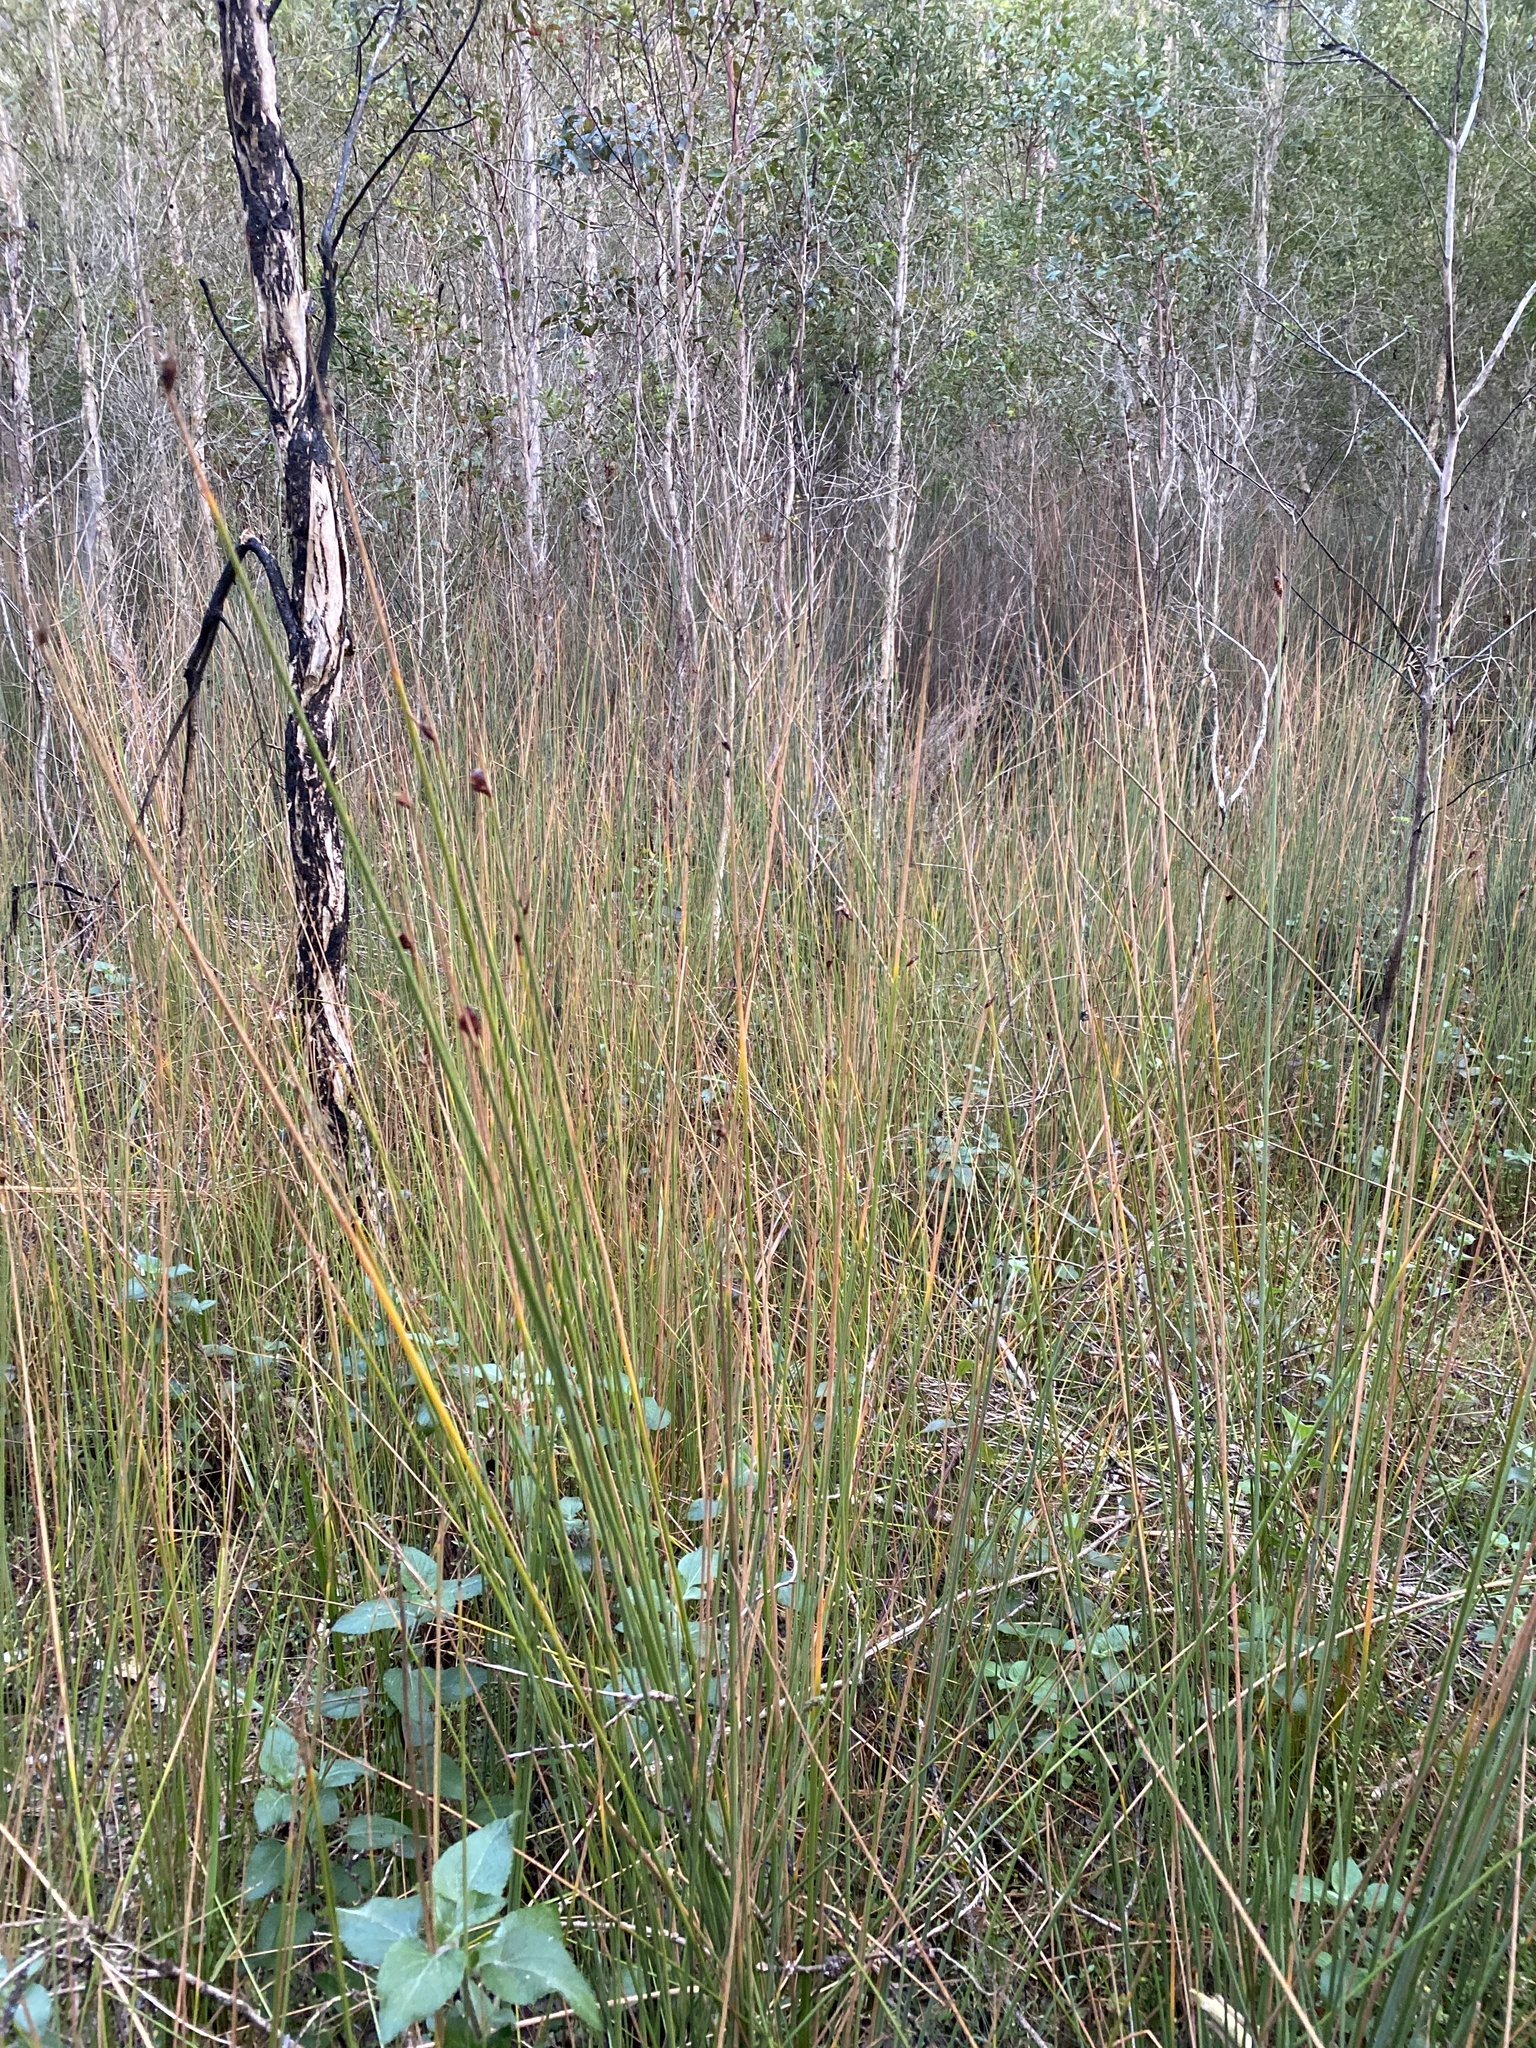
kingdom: Plantae
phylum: Tracheophyta
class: Liliopsida
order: Poales
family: Cyperaceae
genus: Lepironia
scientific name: Lepironia articulata
